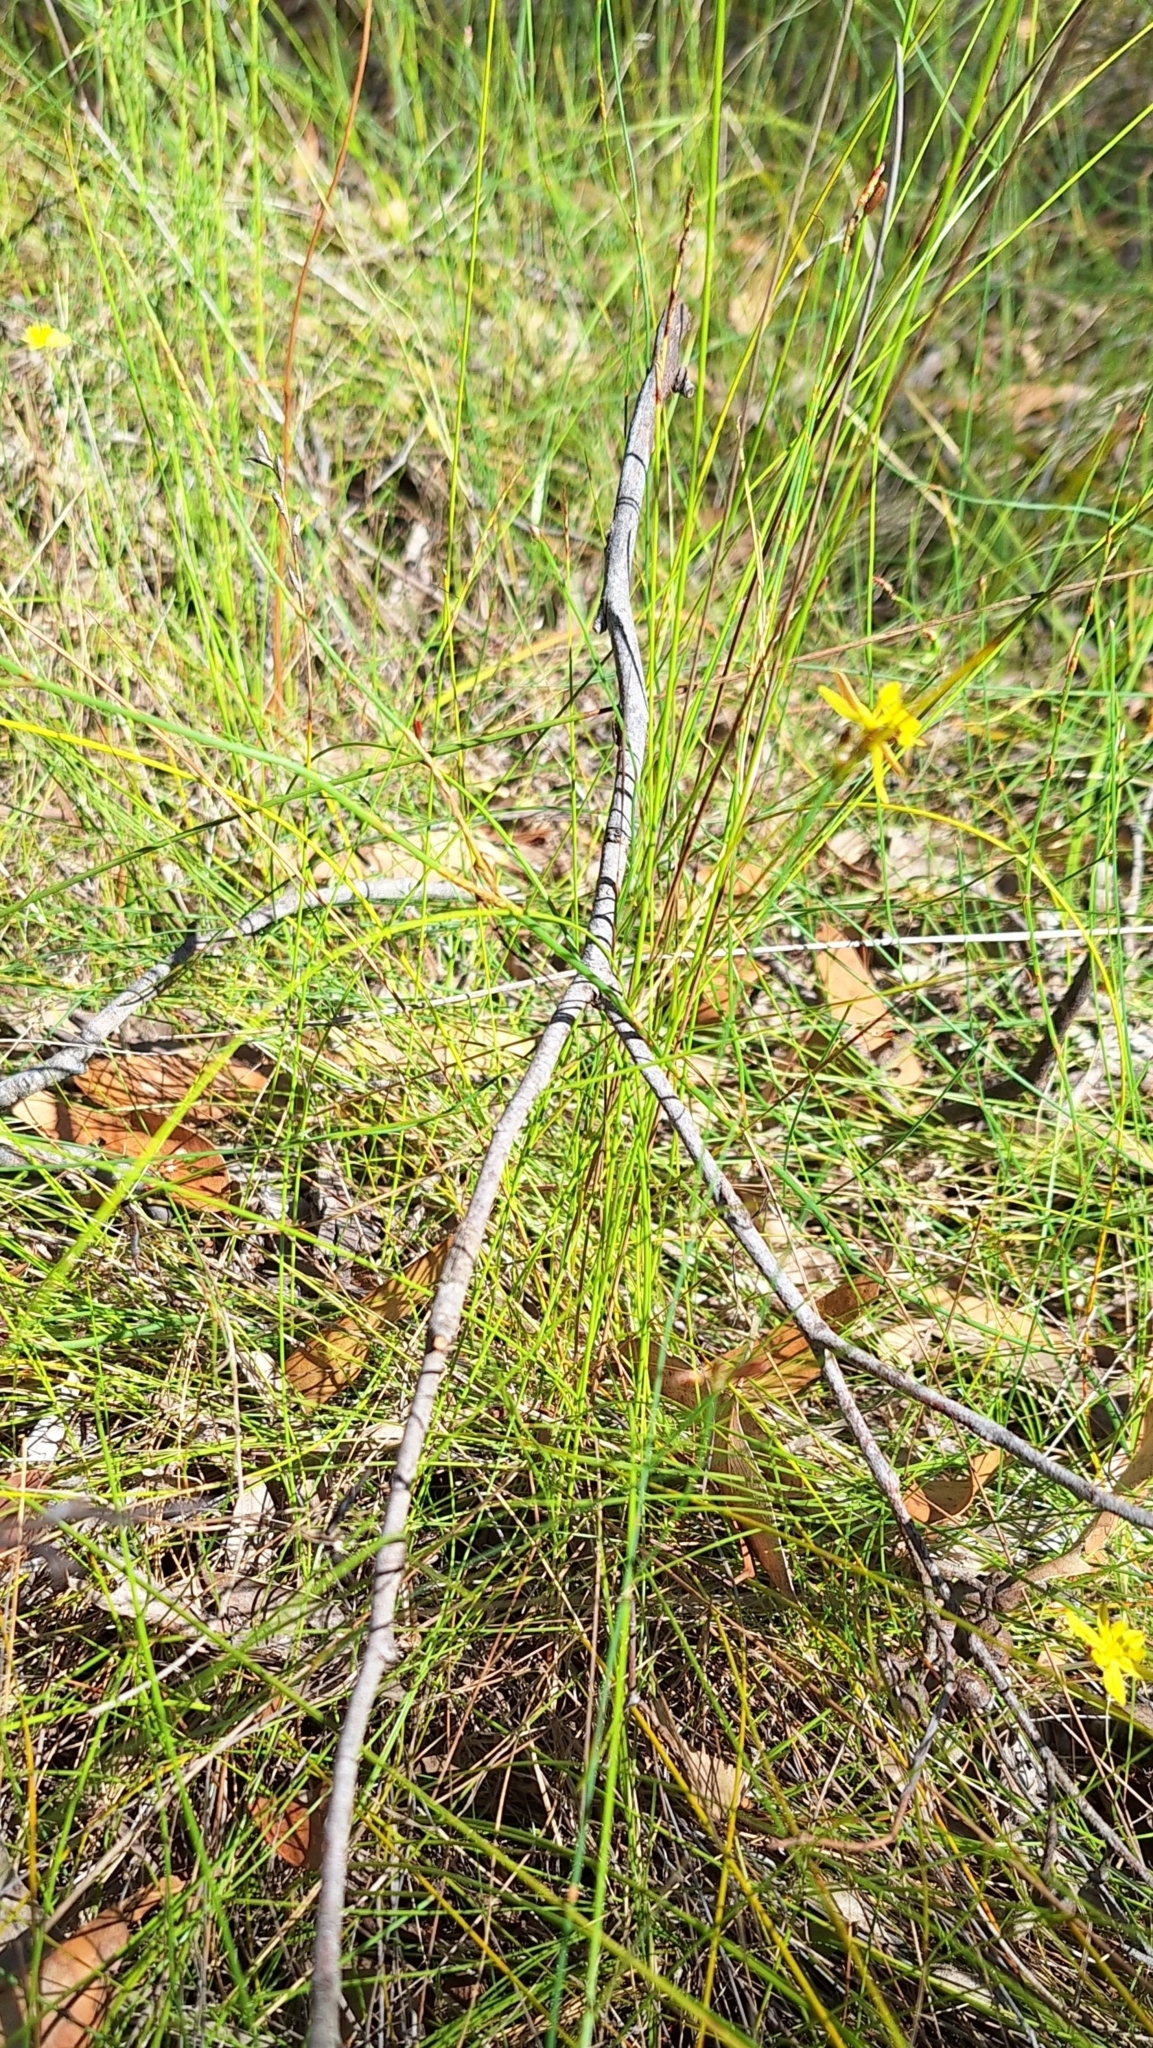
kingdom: Plantae
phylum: Tracheophyta
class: Liliopsida
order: Poales
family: Cyperaceae
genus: Lepidosperma
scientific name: Lepidosperma semiteres
